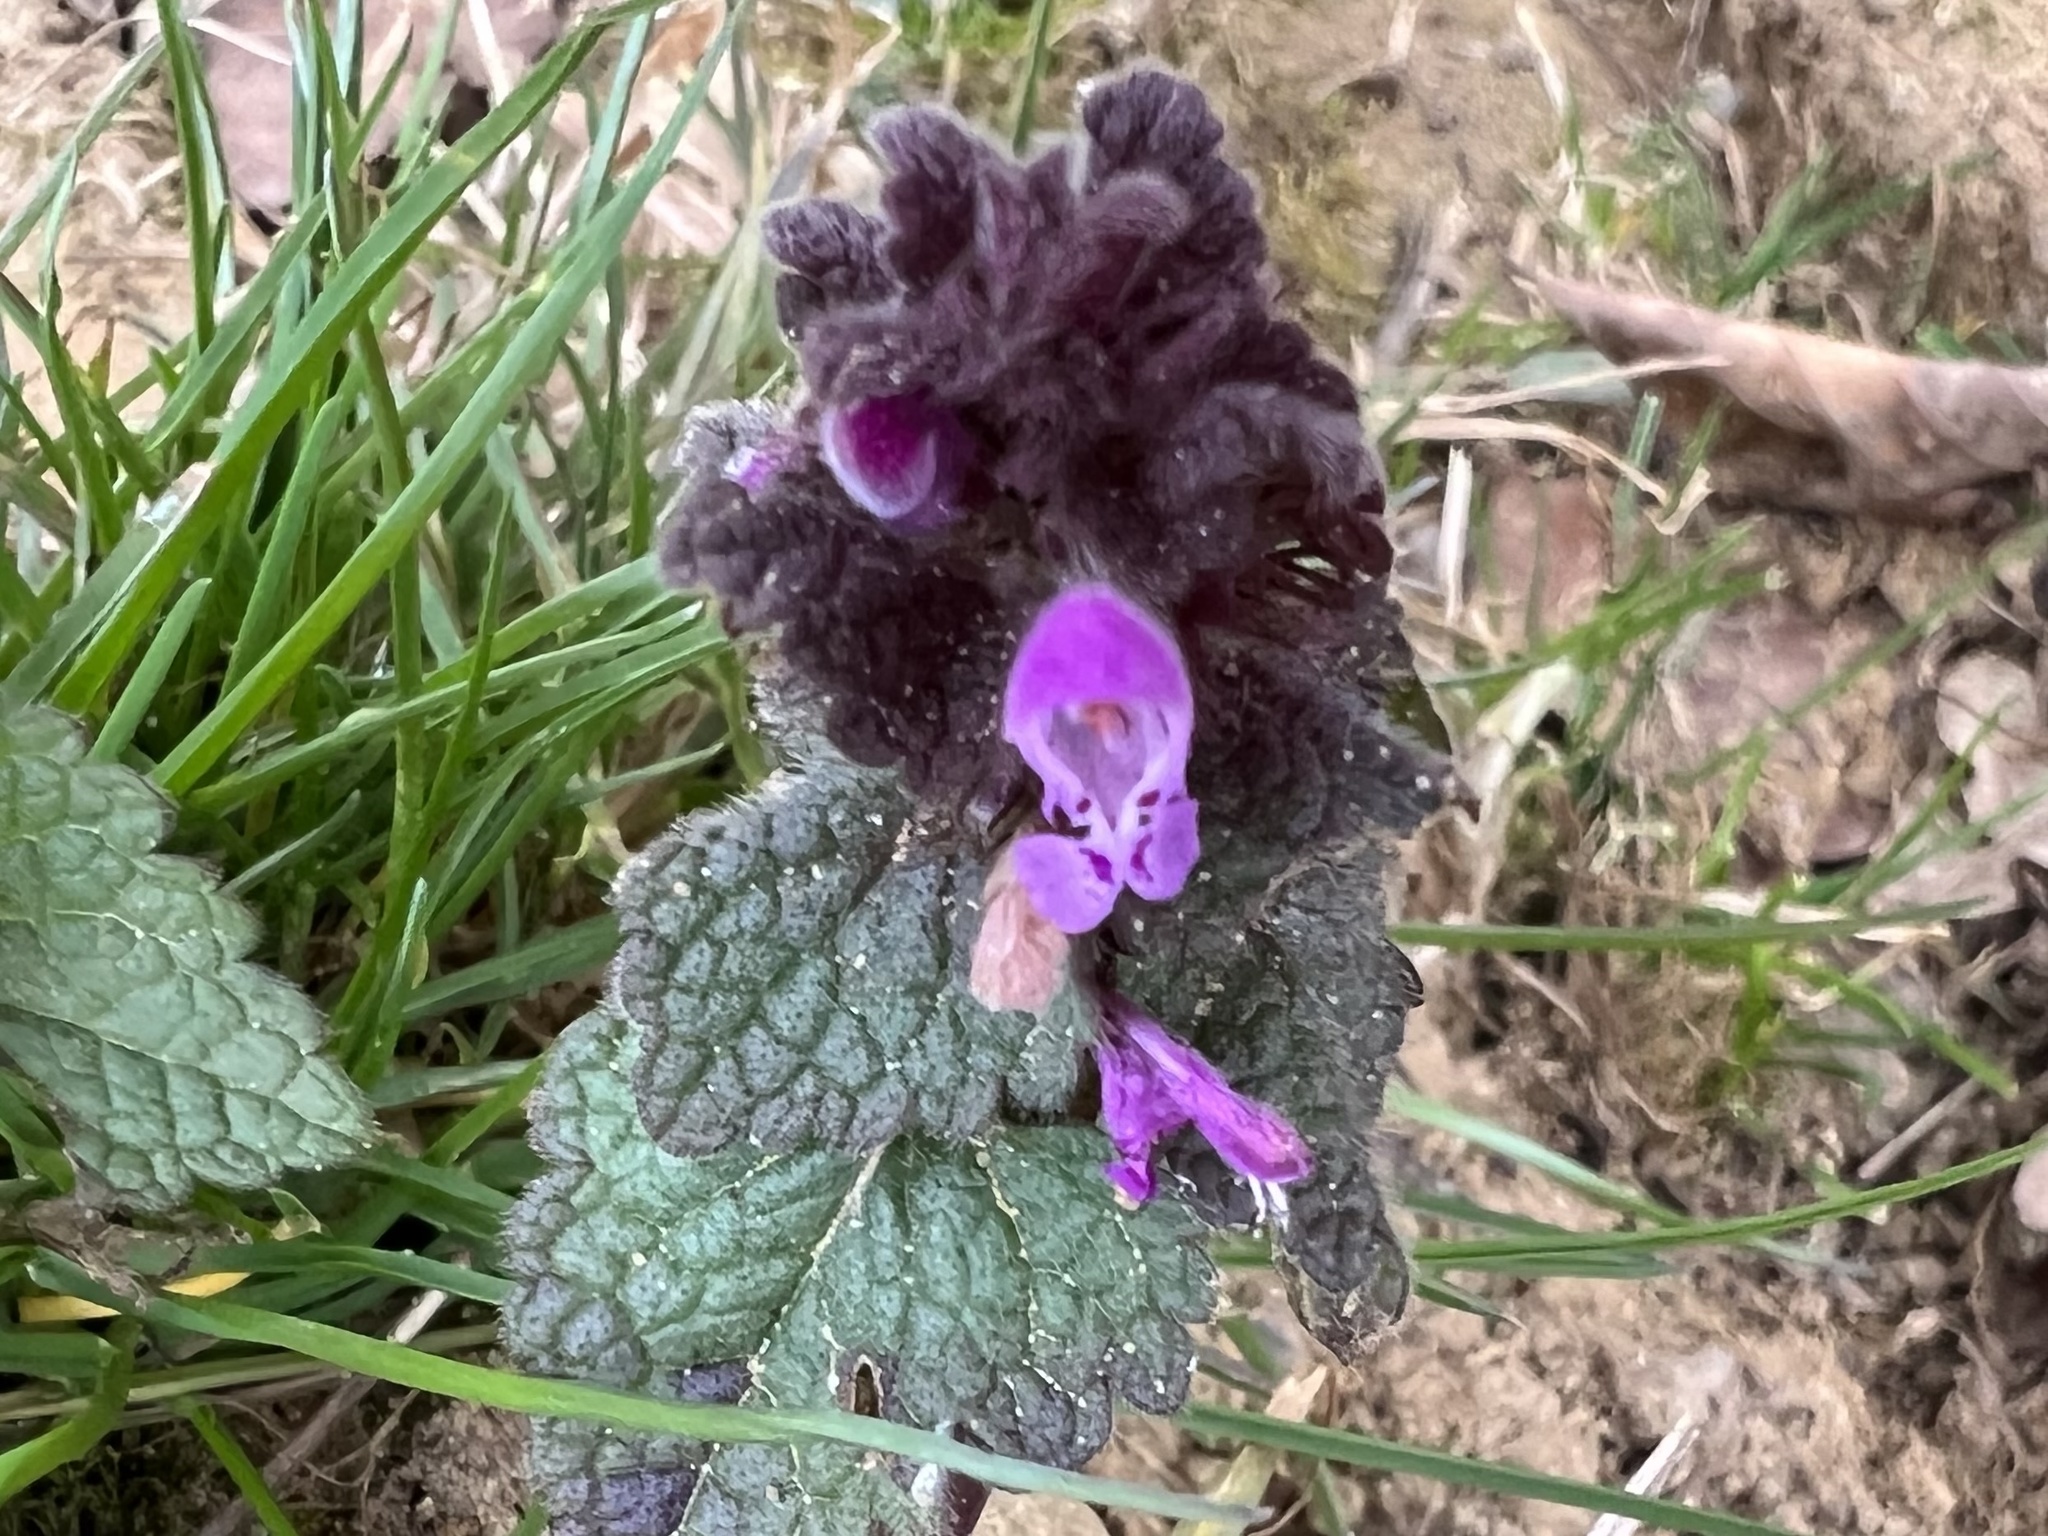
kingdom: Plantae
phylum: Tracheophyta
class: Magnoliopsida
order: Lamiales
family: Lamiaceae
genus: Lamium
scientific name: Lamium purpureum
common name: Red dead-nettle
